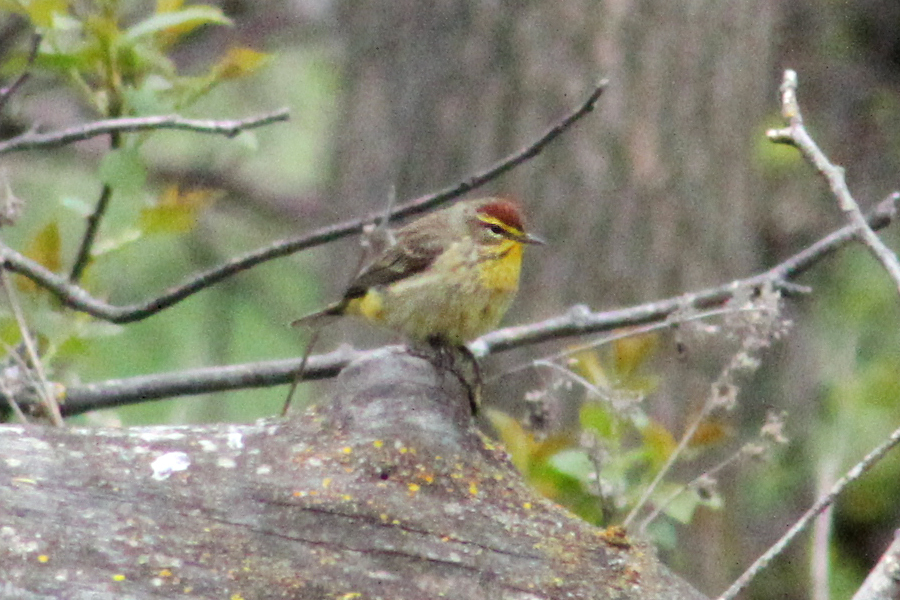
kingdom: Animalia
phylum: Chordata
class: Aves
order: Passeriformes
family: Parulidae
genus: Setophaga
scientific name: Setophaga palmarum
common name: Palm warbler
